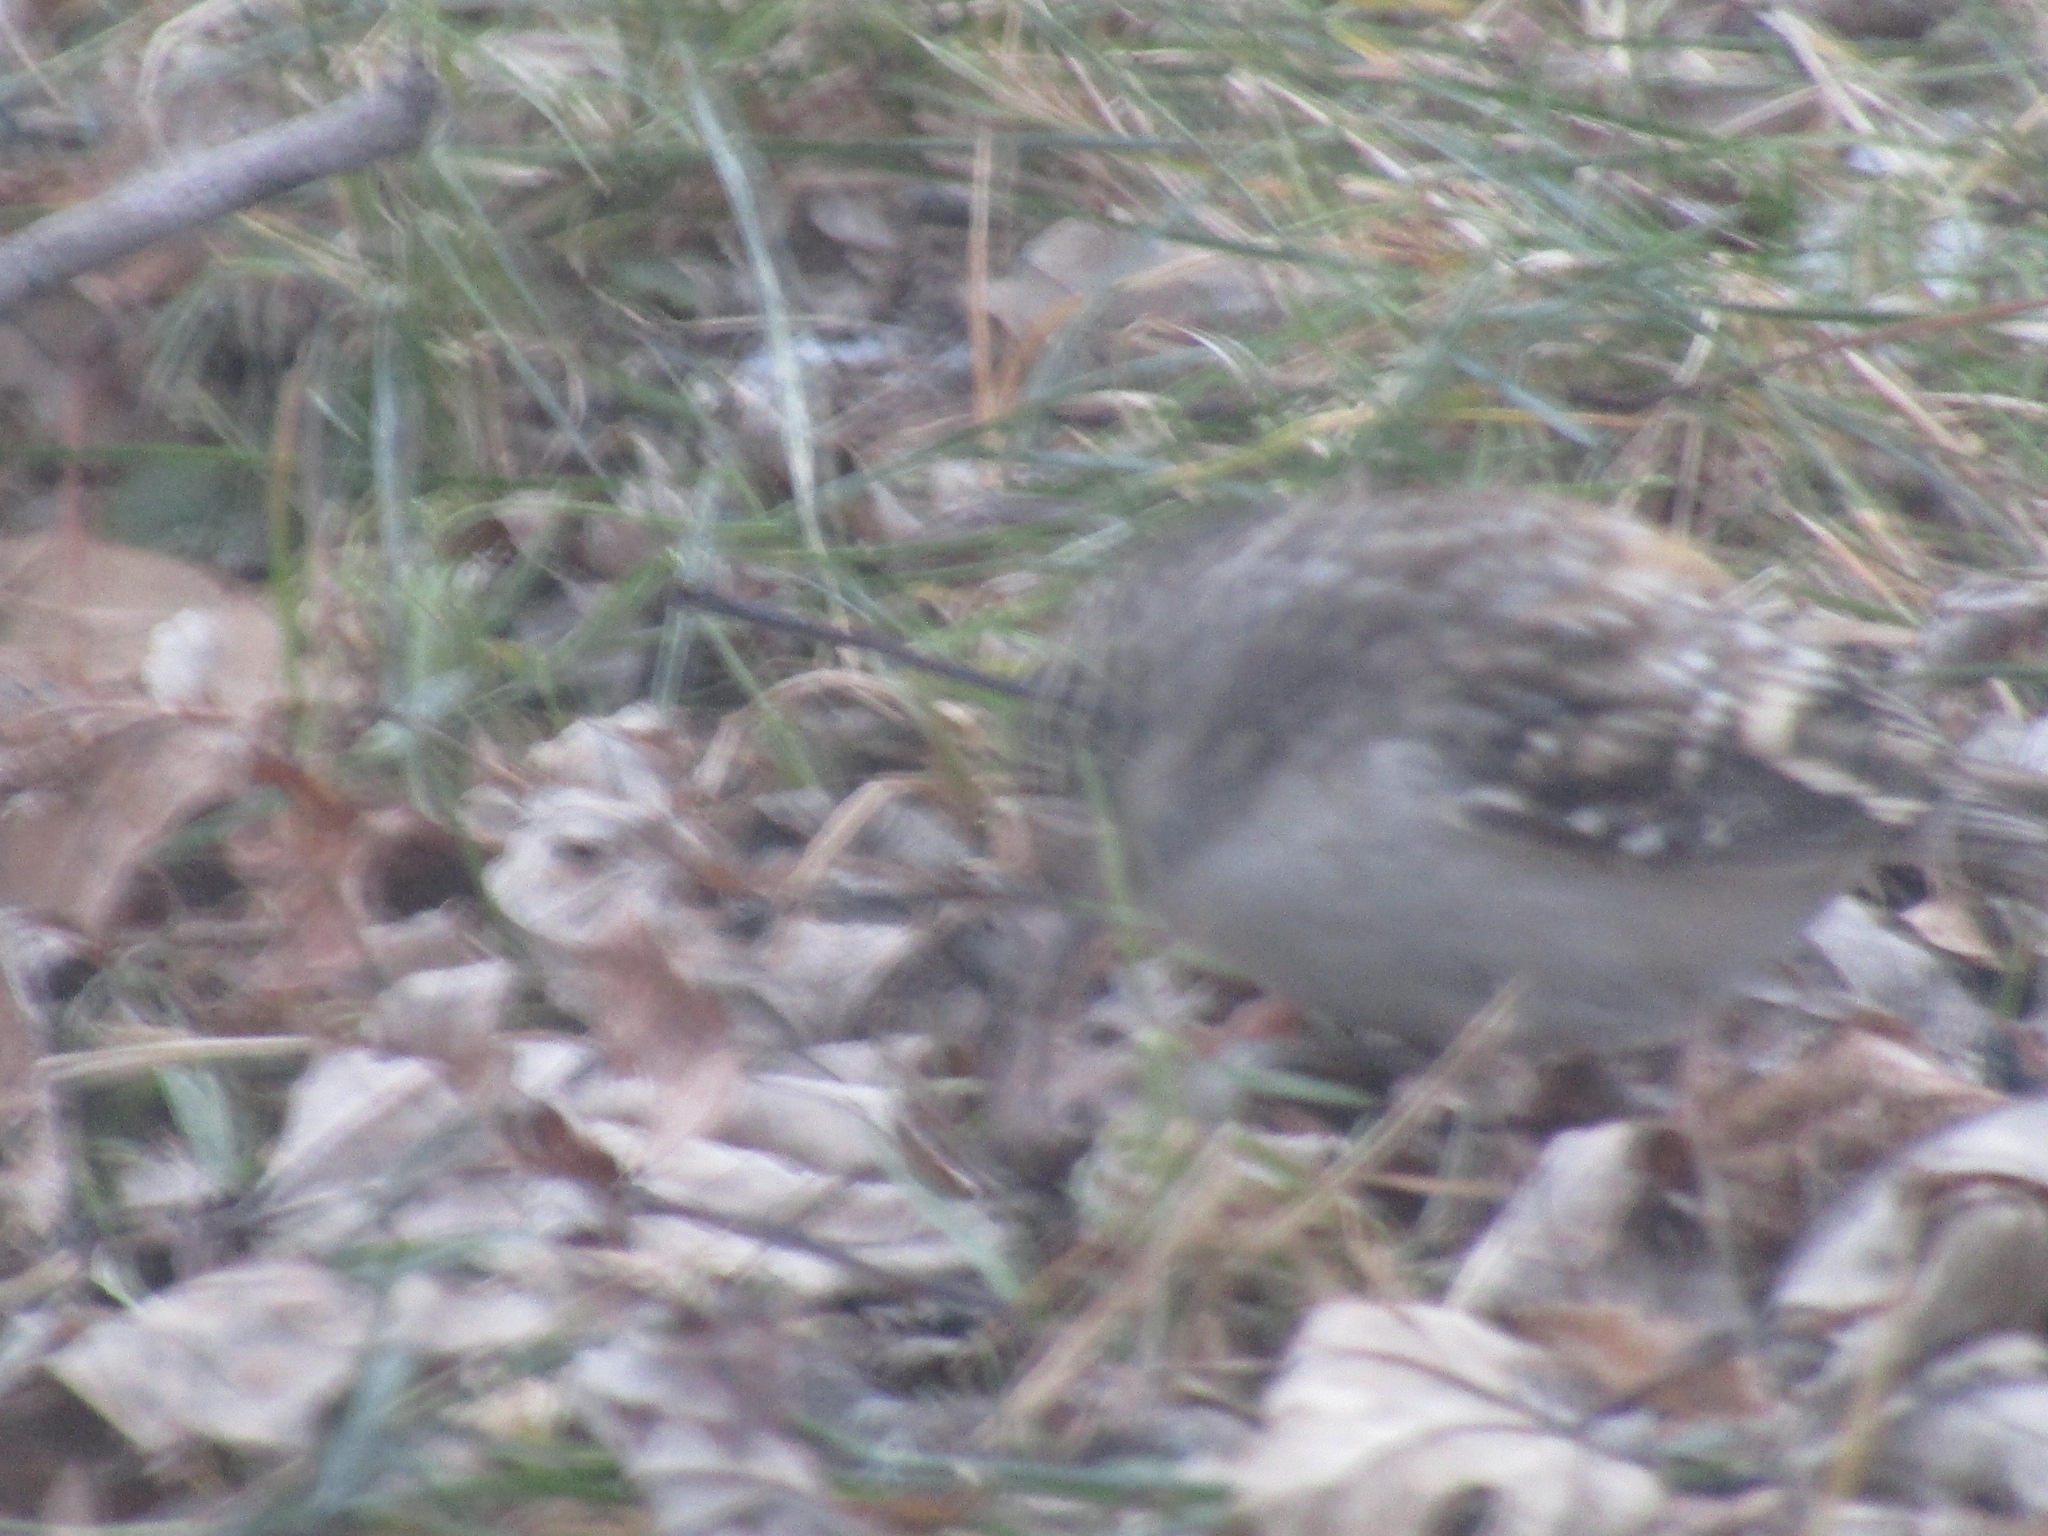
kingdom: Animalia
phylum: Chordata
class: Aves
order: Passeriformes
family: Certhiidae
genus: Certhia
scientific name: Certhia americana
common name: Brown creeper
